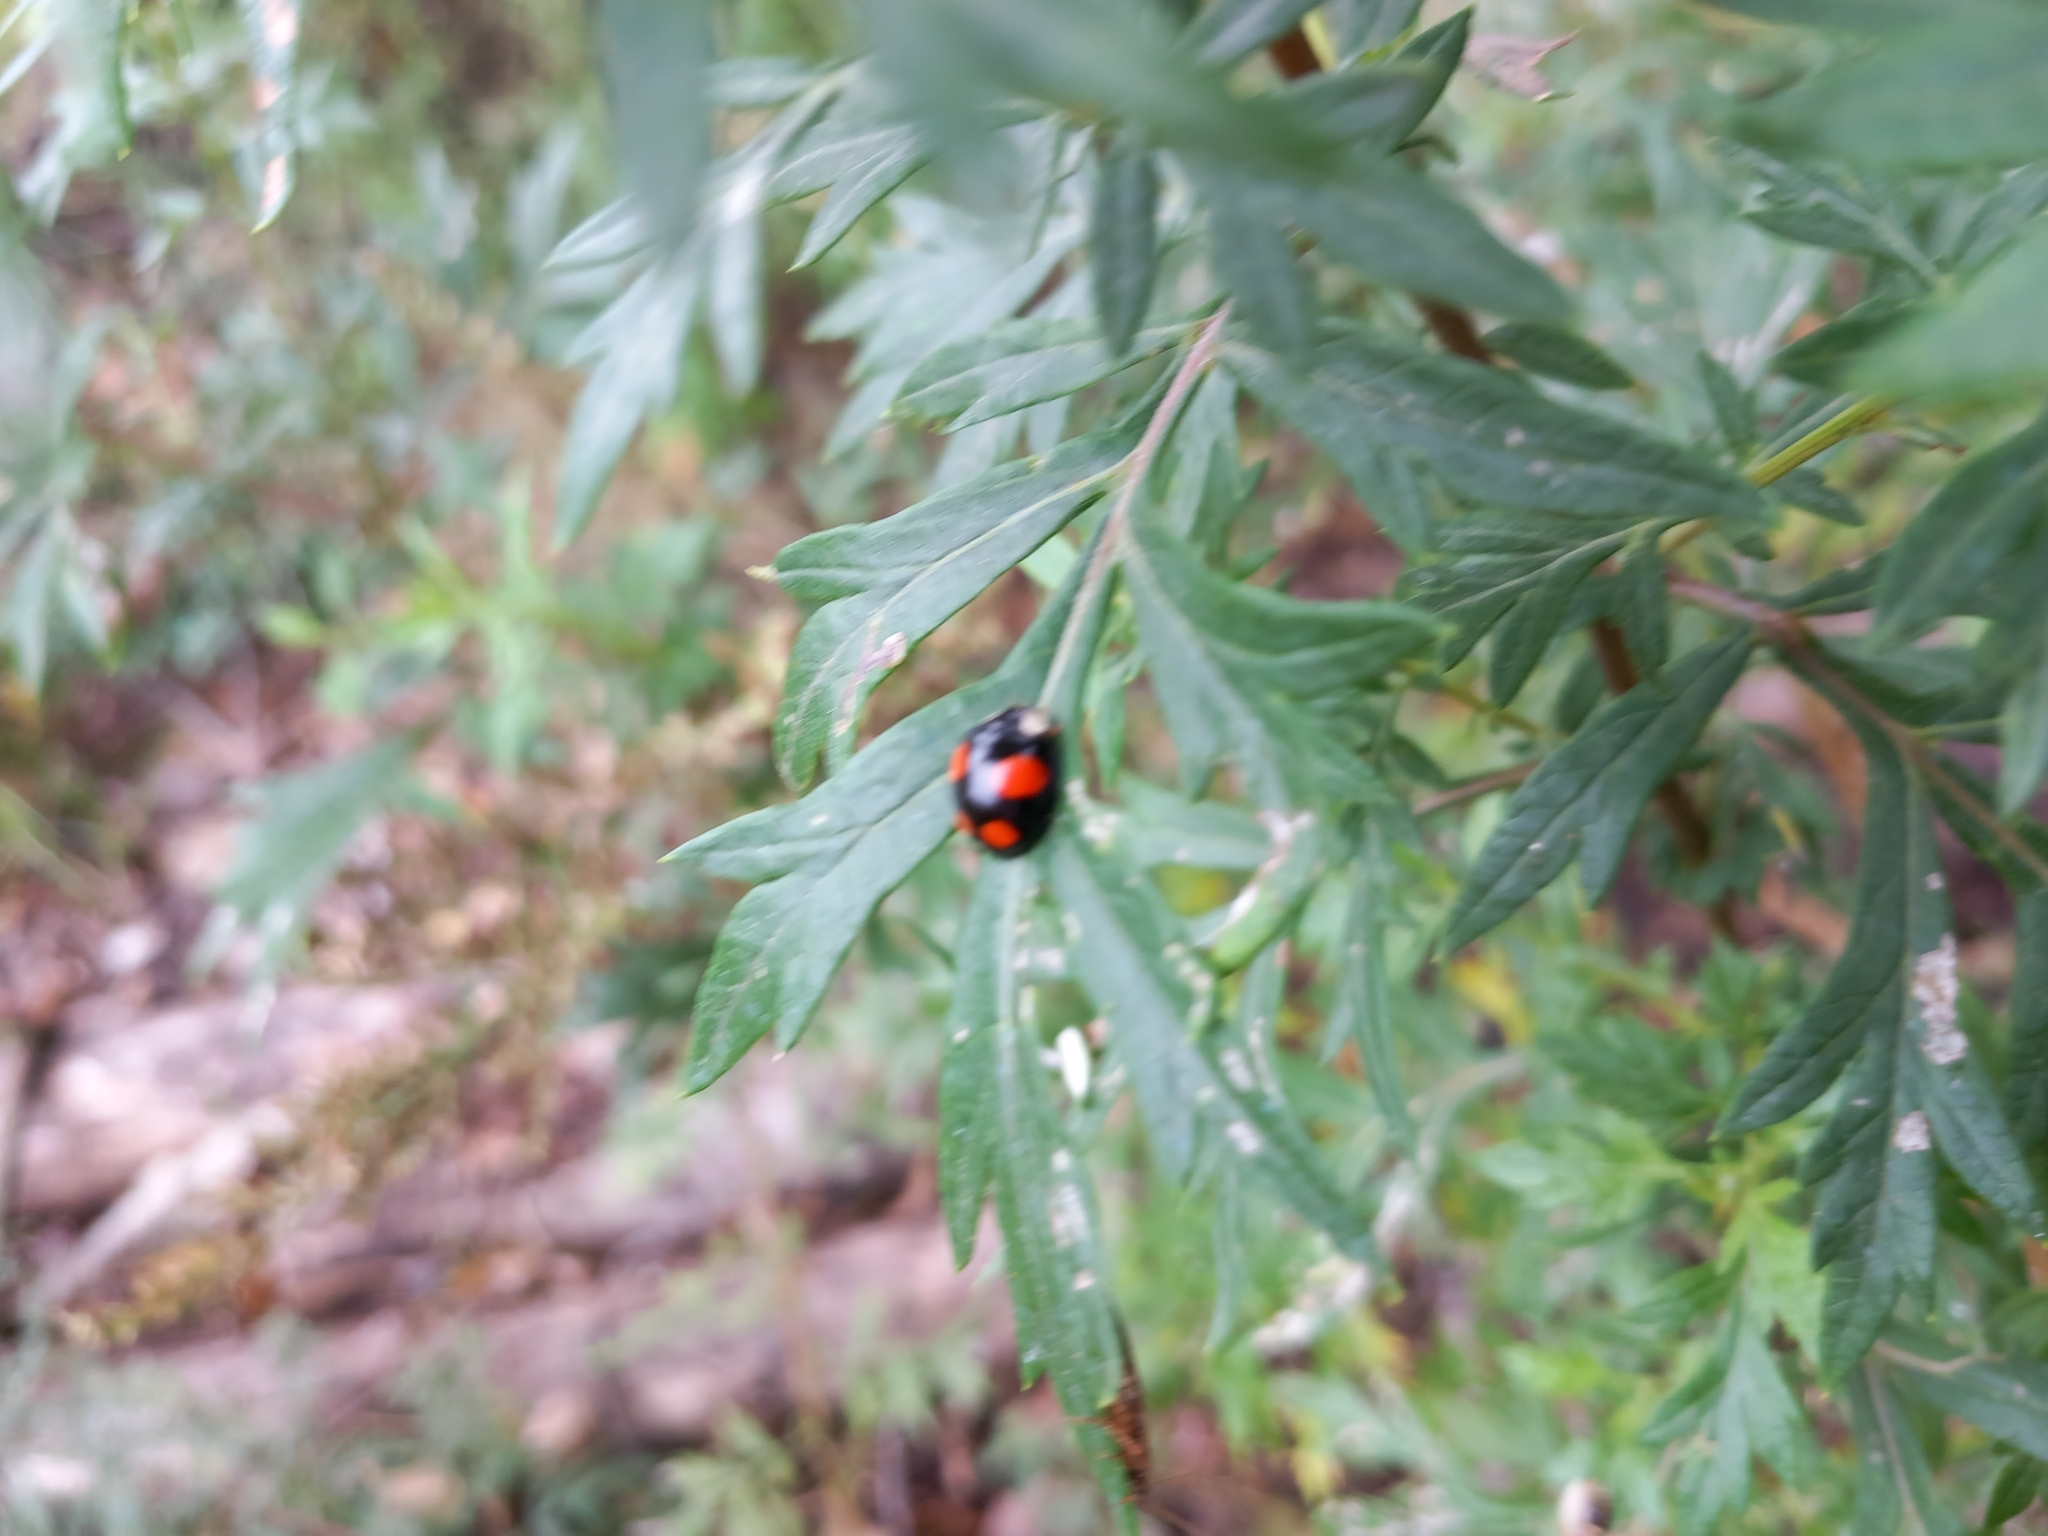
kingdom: Animalia
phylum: Arthropoda
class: Insecta
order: Coleoptera
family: Coccinellidae
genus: Harmonia
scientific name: Harmonia axyridis
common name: Harlequin ladybird
